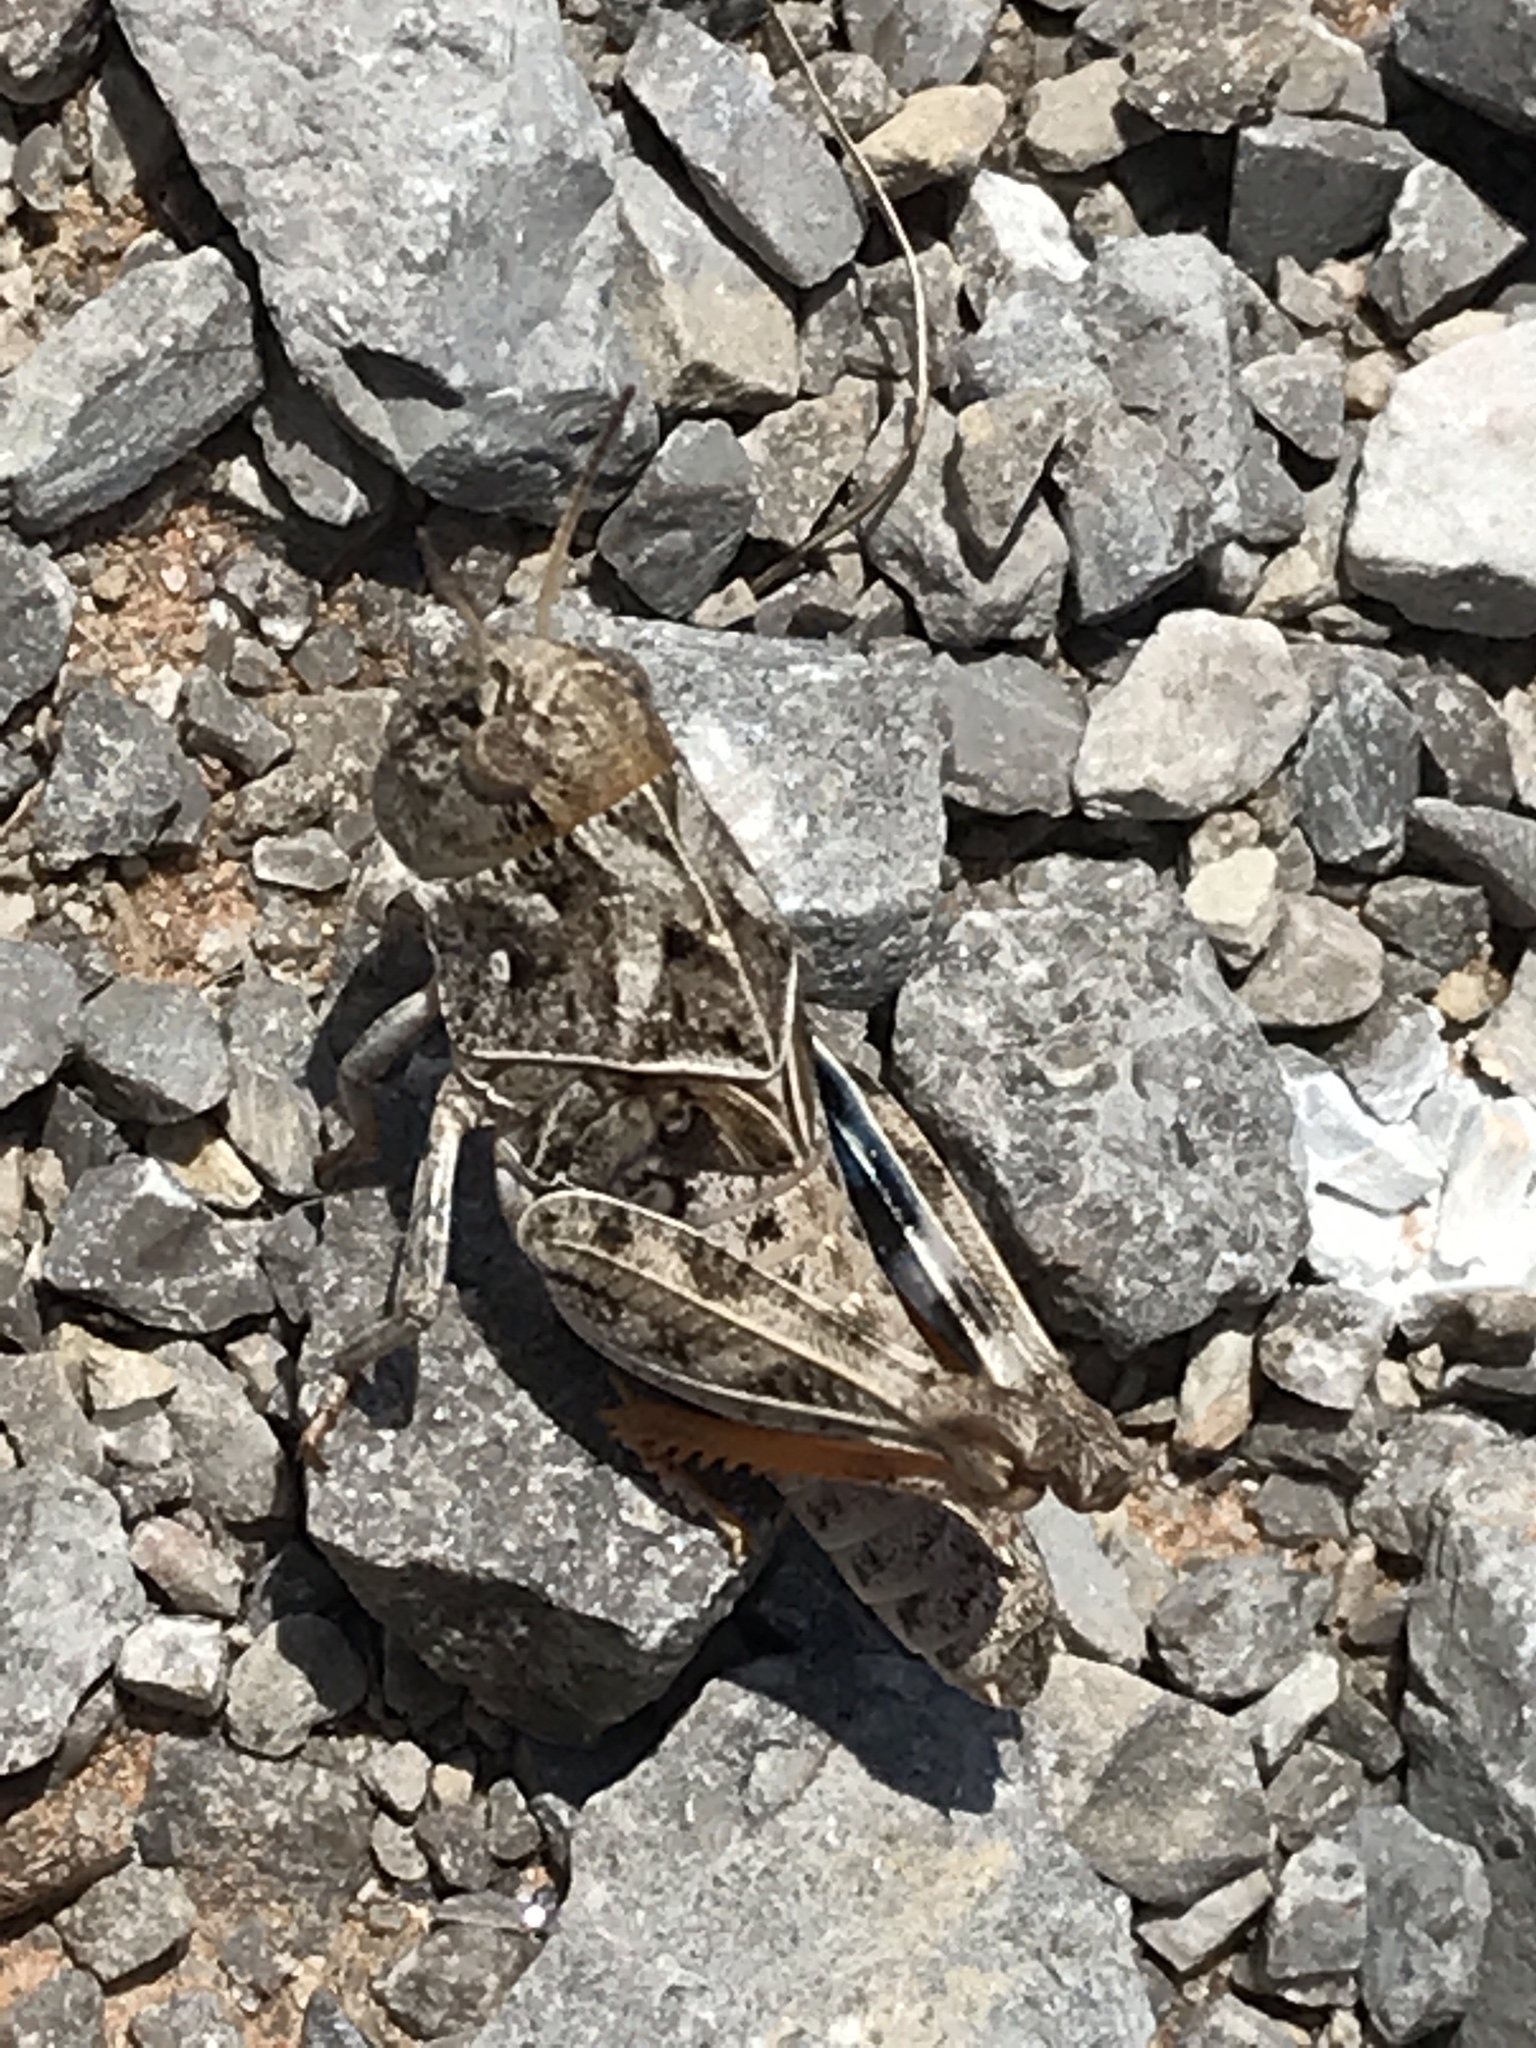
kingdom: Animalia
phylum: Arthropoda
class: Insecta
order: Orthoptera
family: Acrididae
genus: Hippiscus
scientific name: Hippiscus ocelote
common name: Wrinkled grasshopper
